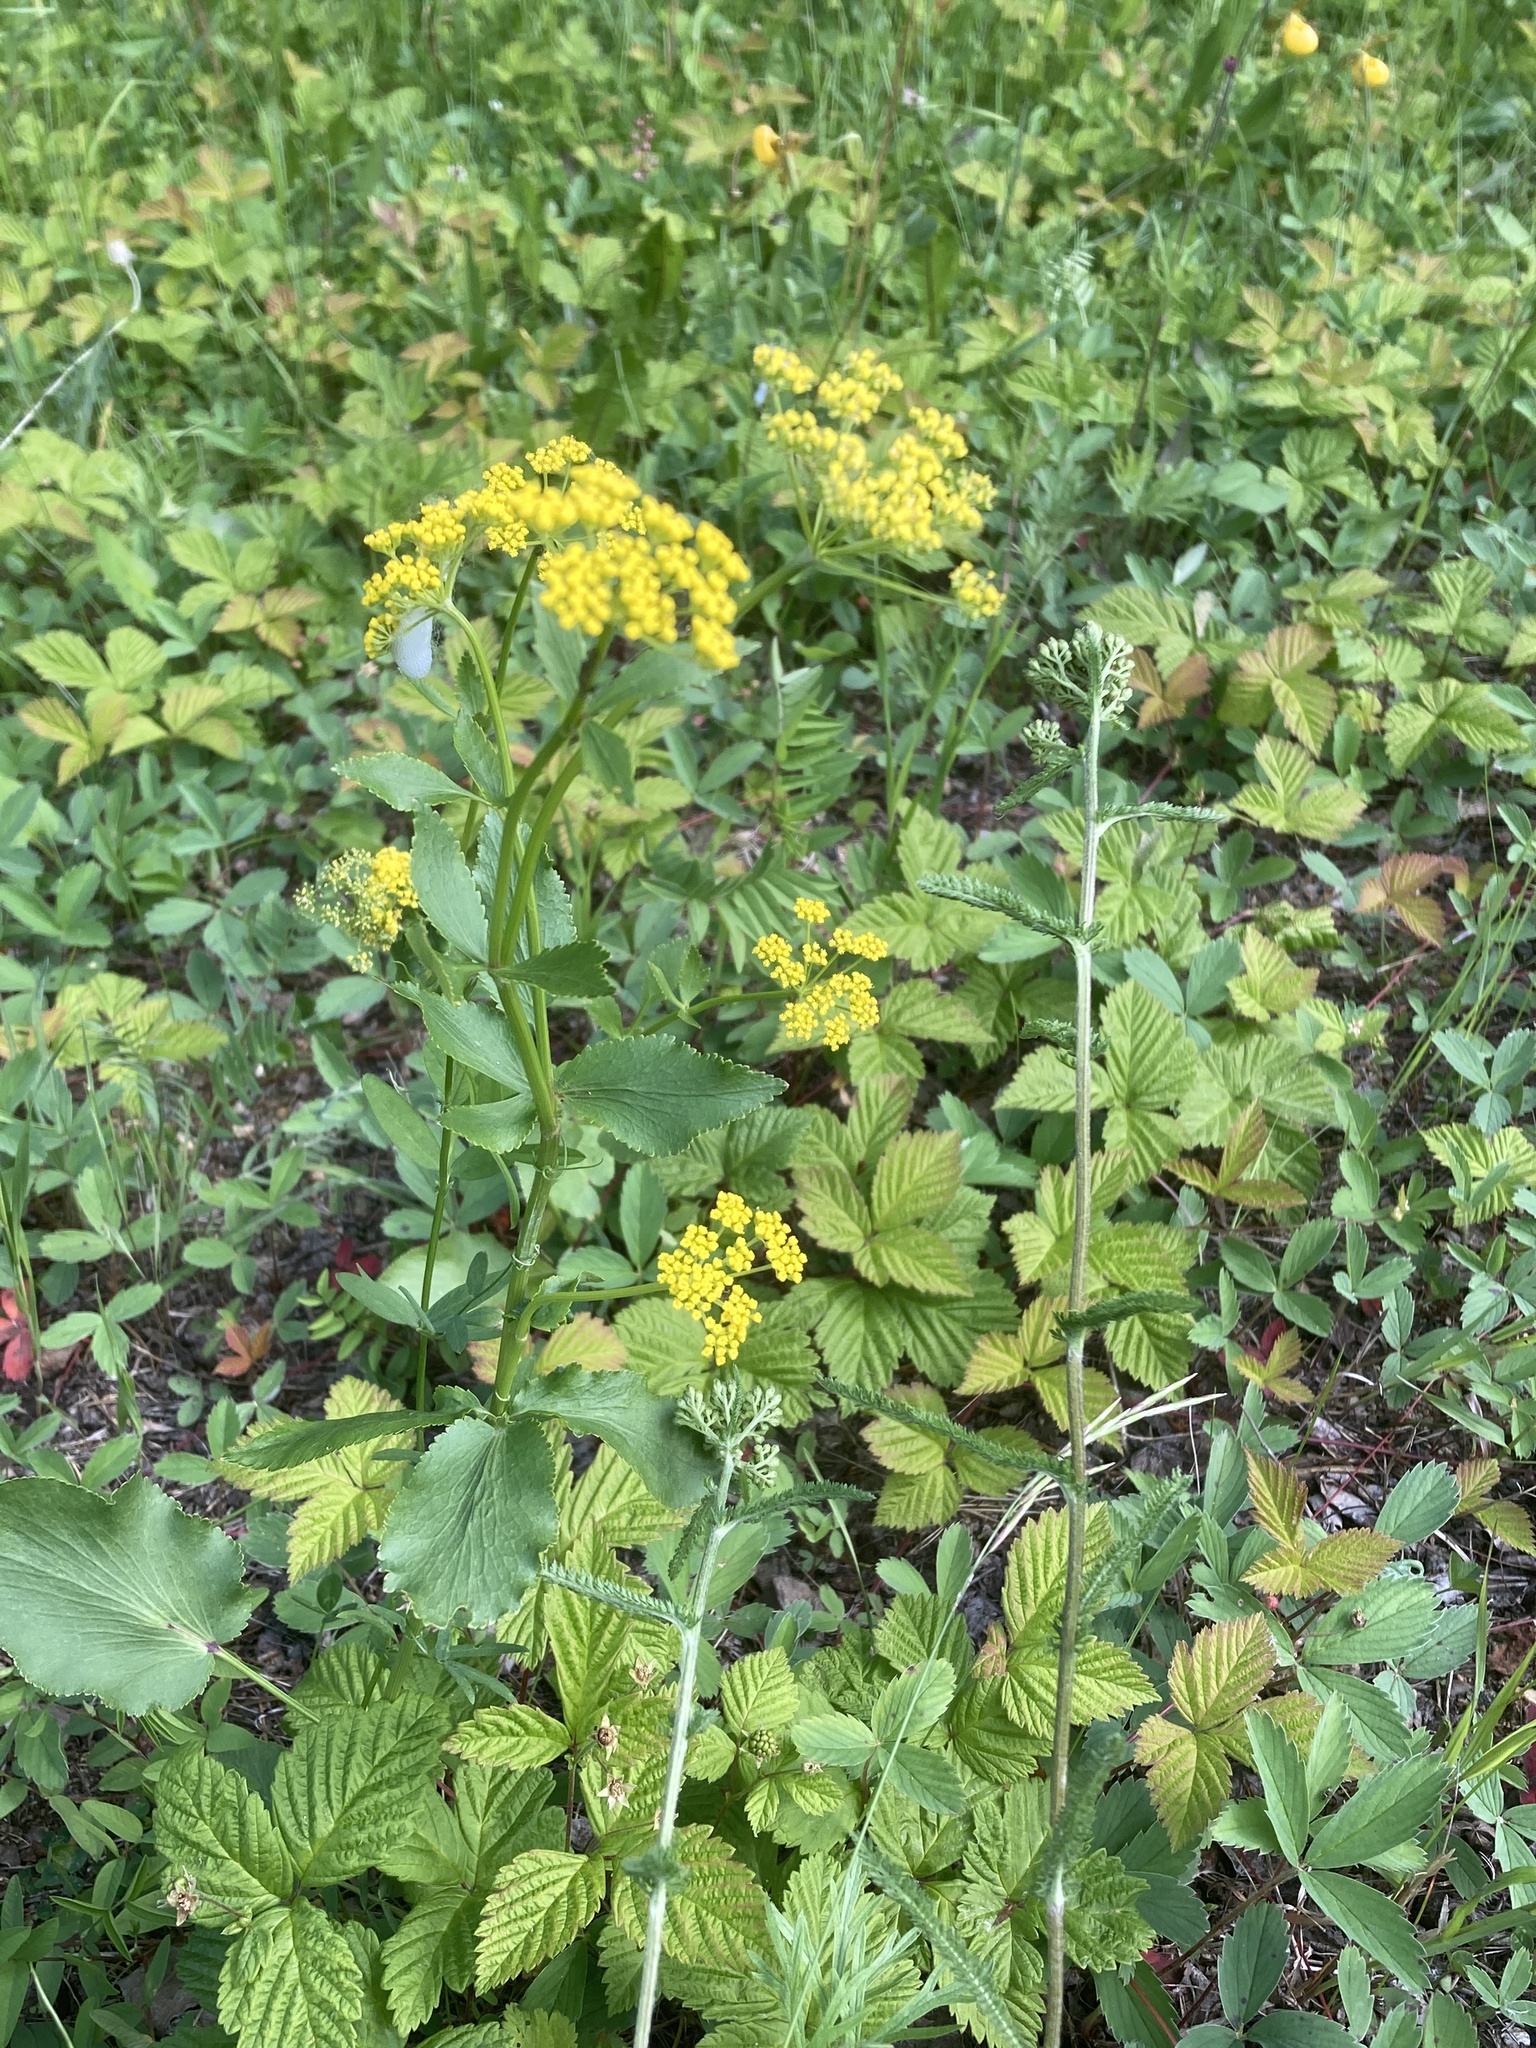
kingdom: Plantae
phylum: Tracheophyta
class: Magnoliopsida
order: Apiales
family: Apiaceae
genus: Zizia
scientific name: Zizia aptera
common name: Heart-leaved alexanders
